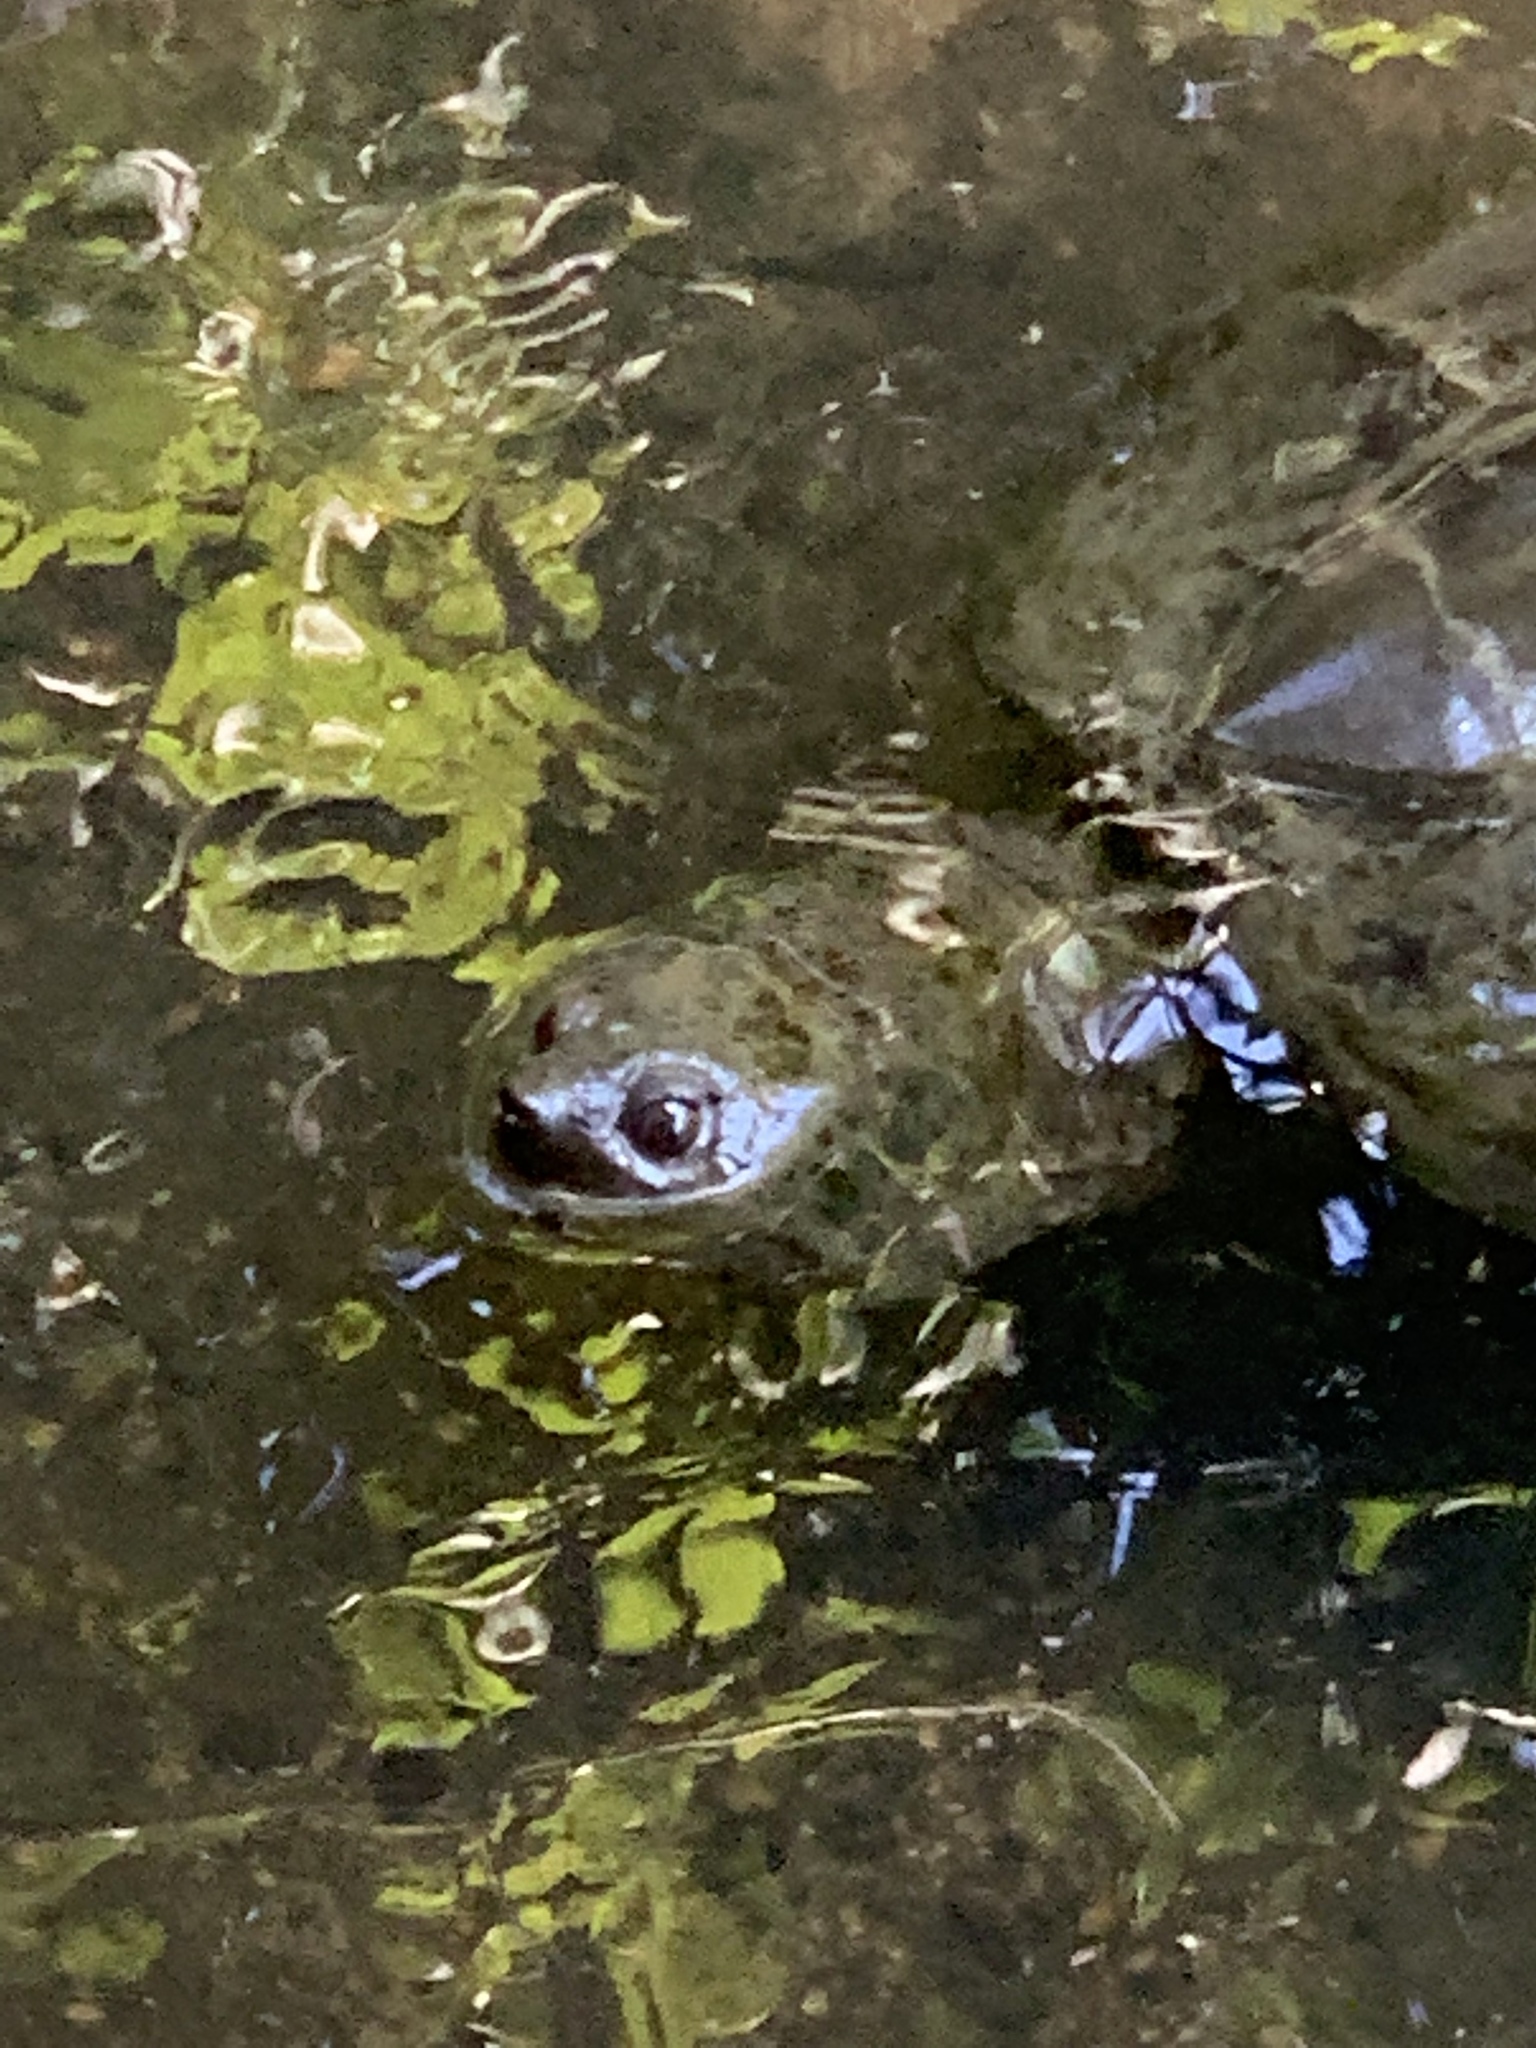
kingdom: Animalia
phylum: Chordata
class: Testudines
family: Chelydridae
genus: Chelydra
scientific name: Chelydra serpentina
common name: Common snapping turtle
